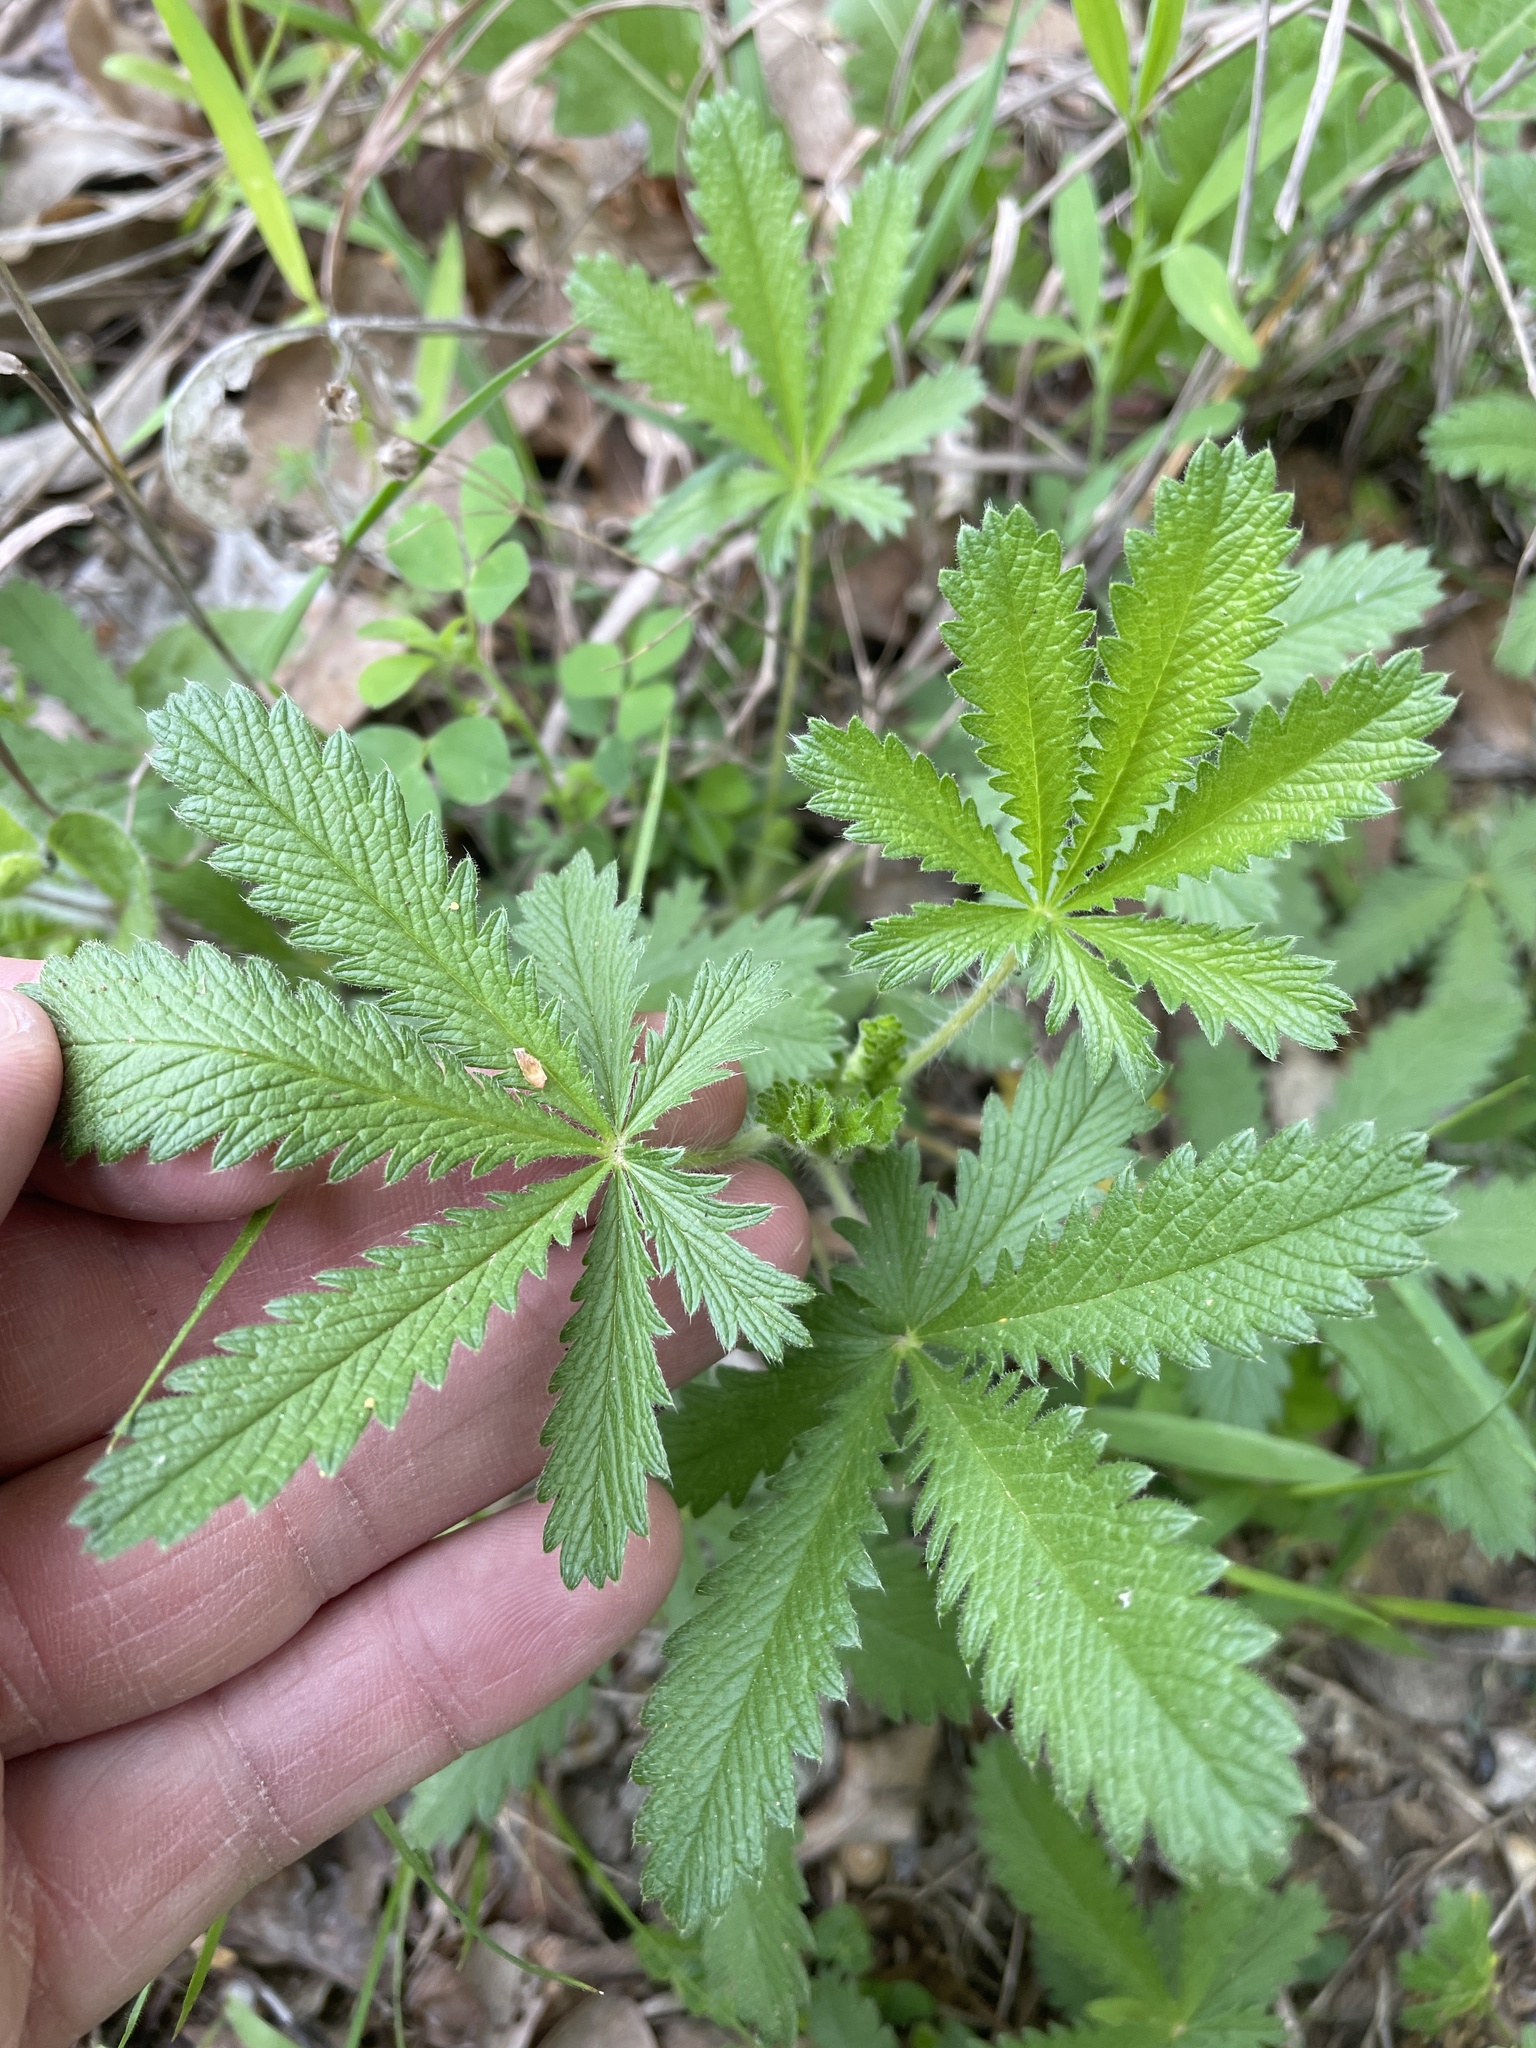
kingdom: Plantae
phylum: Tracheophyta
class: Magnoliopsida
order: Rosales
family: Rosaceae
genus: Potentilla
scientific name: Potentilla recta
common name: Sulphur cinquefoil
